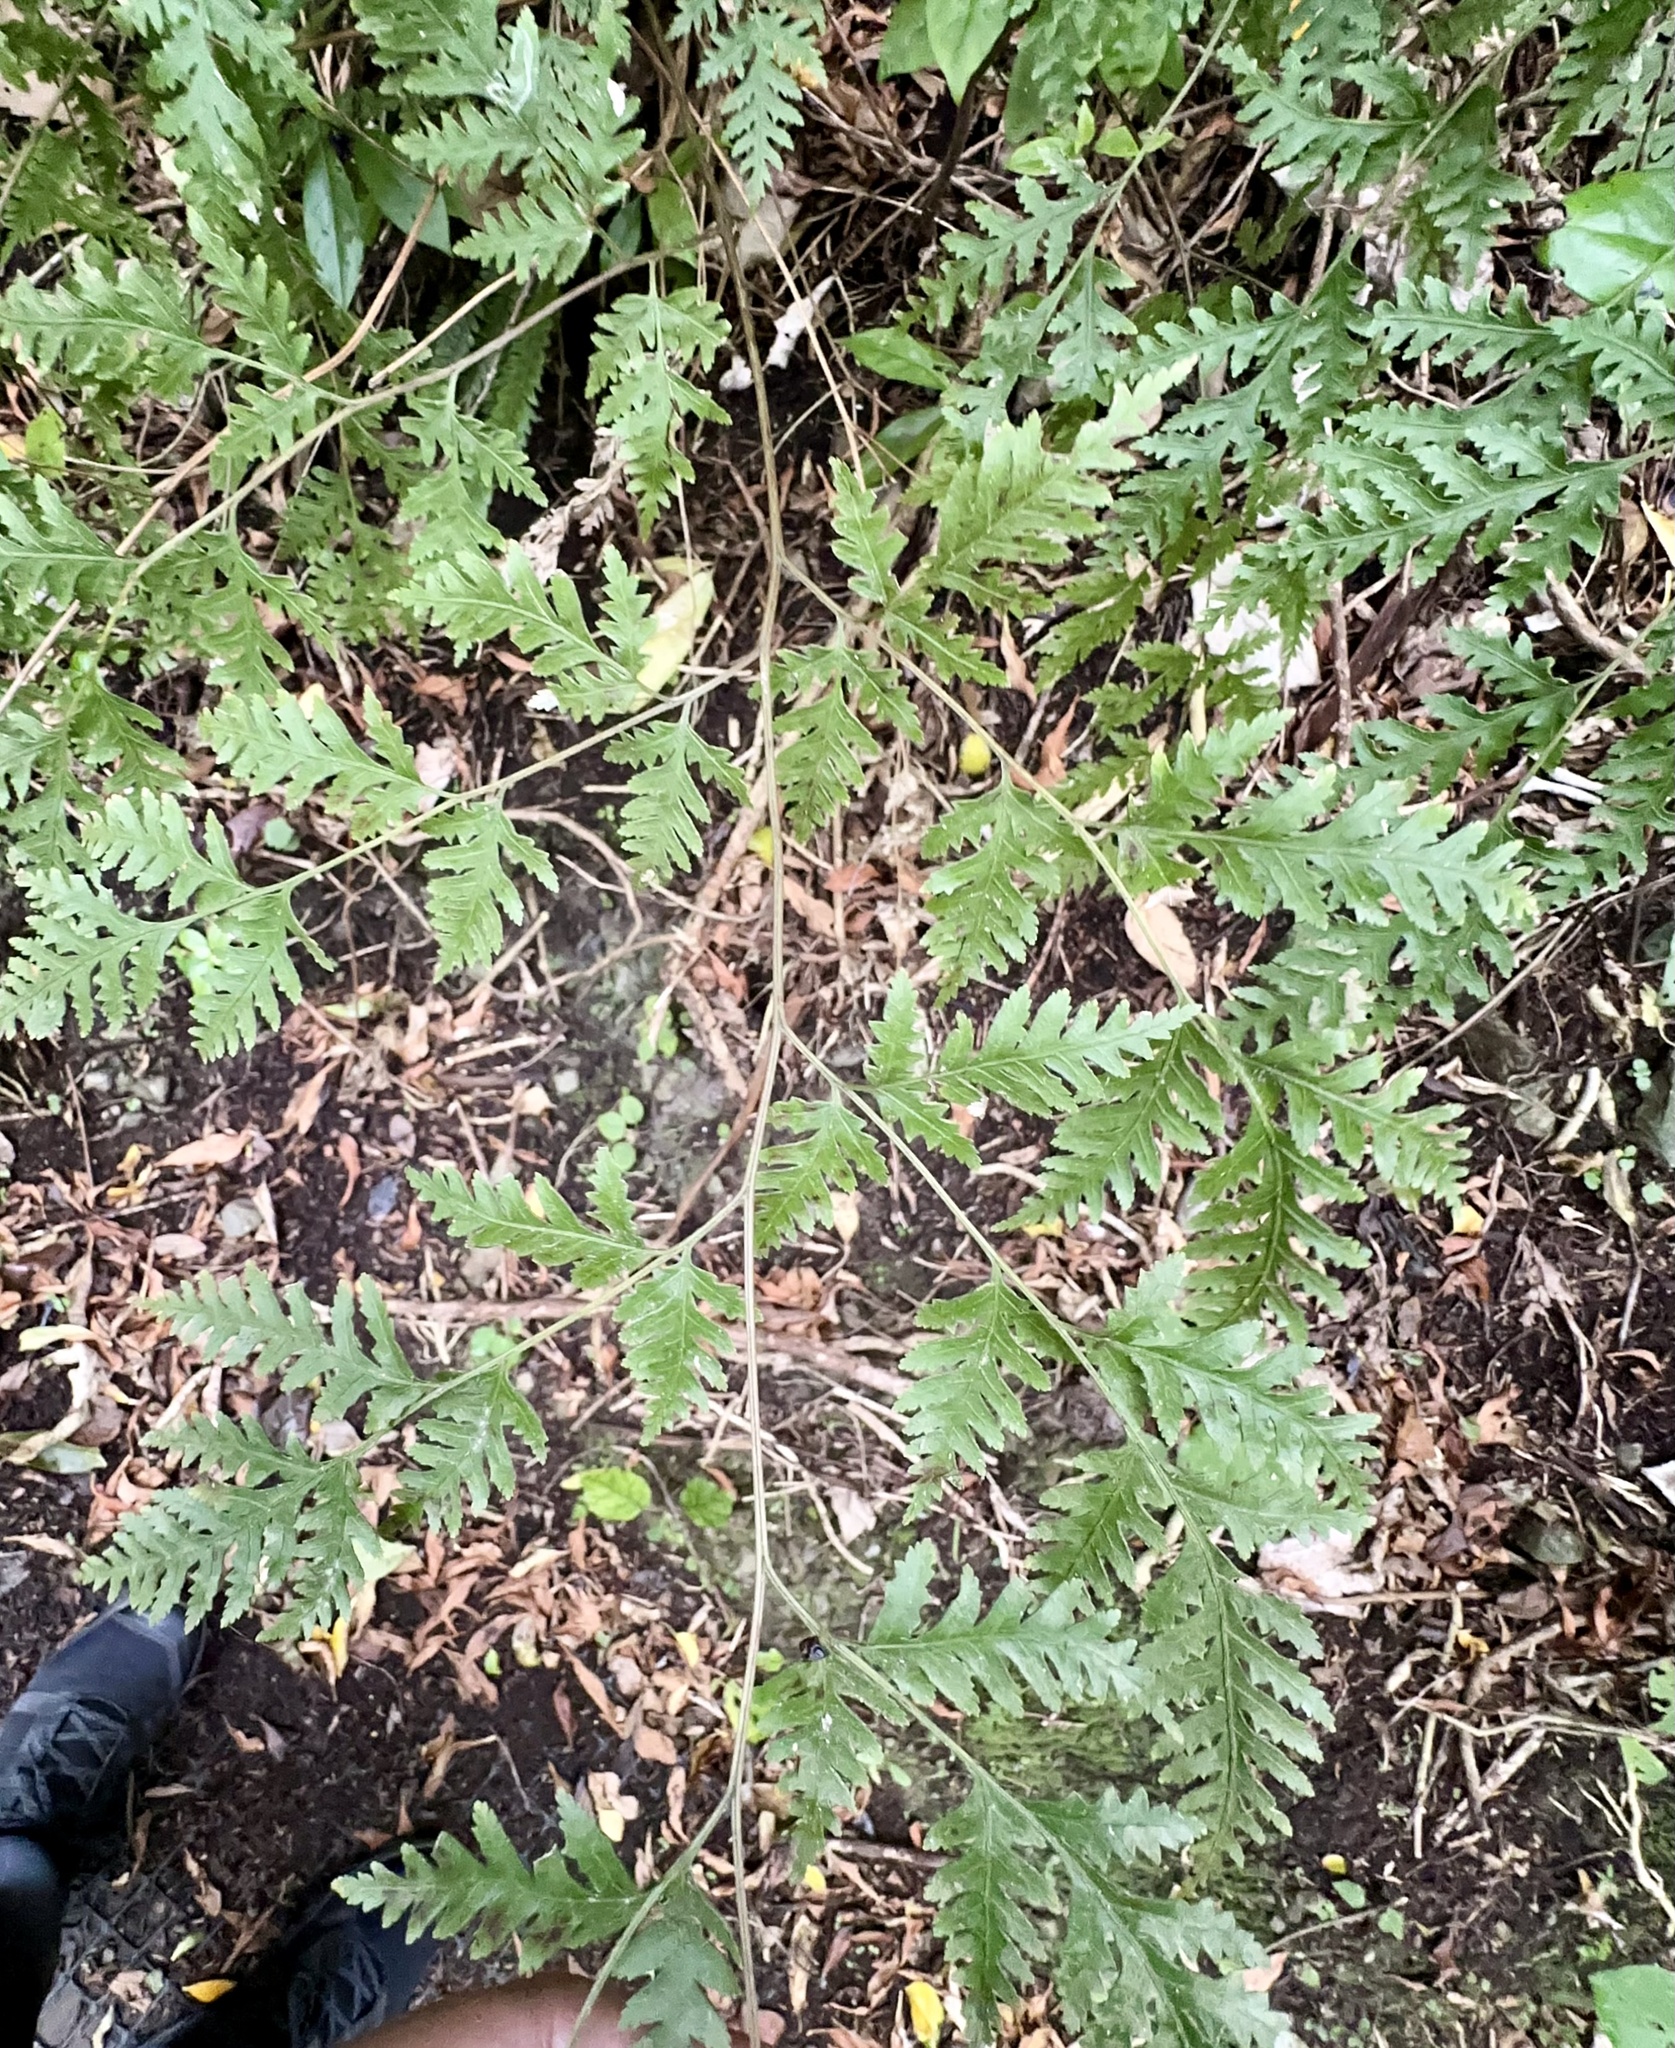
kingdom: Plantae
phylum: Tracheophyta
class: Polypodiopsida
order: Polypodiales
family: Pteridaceae
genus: Pteris
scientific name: Pteris macilenta
